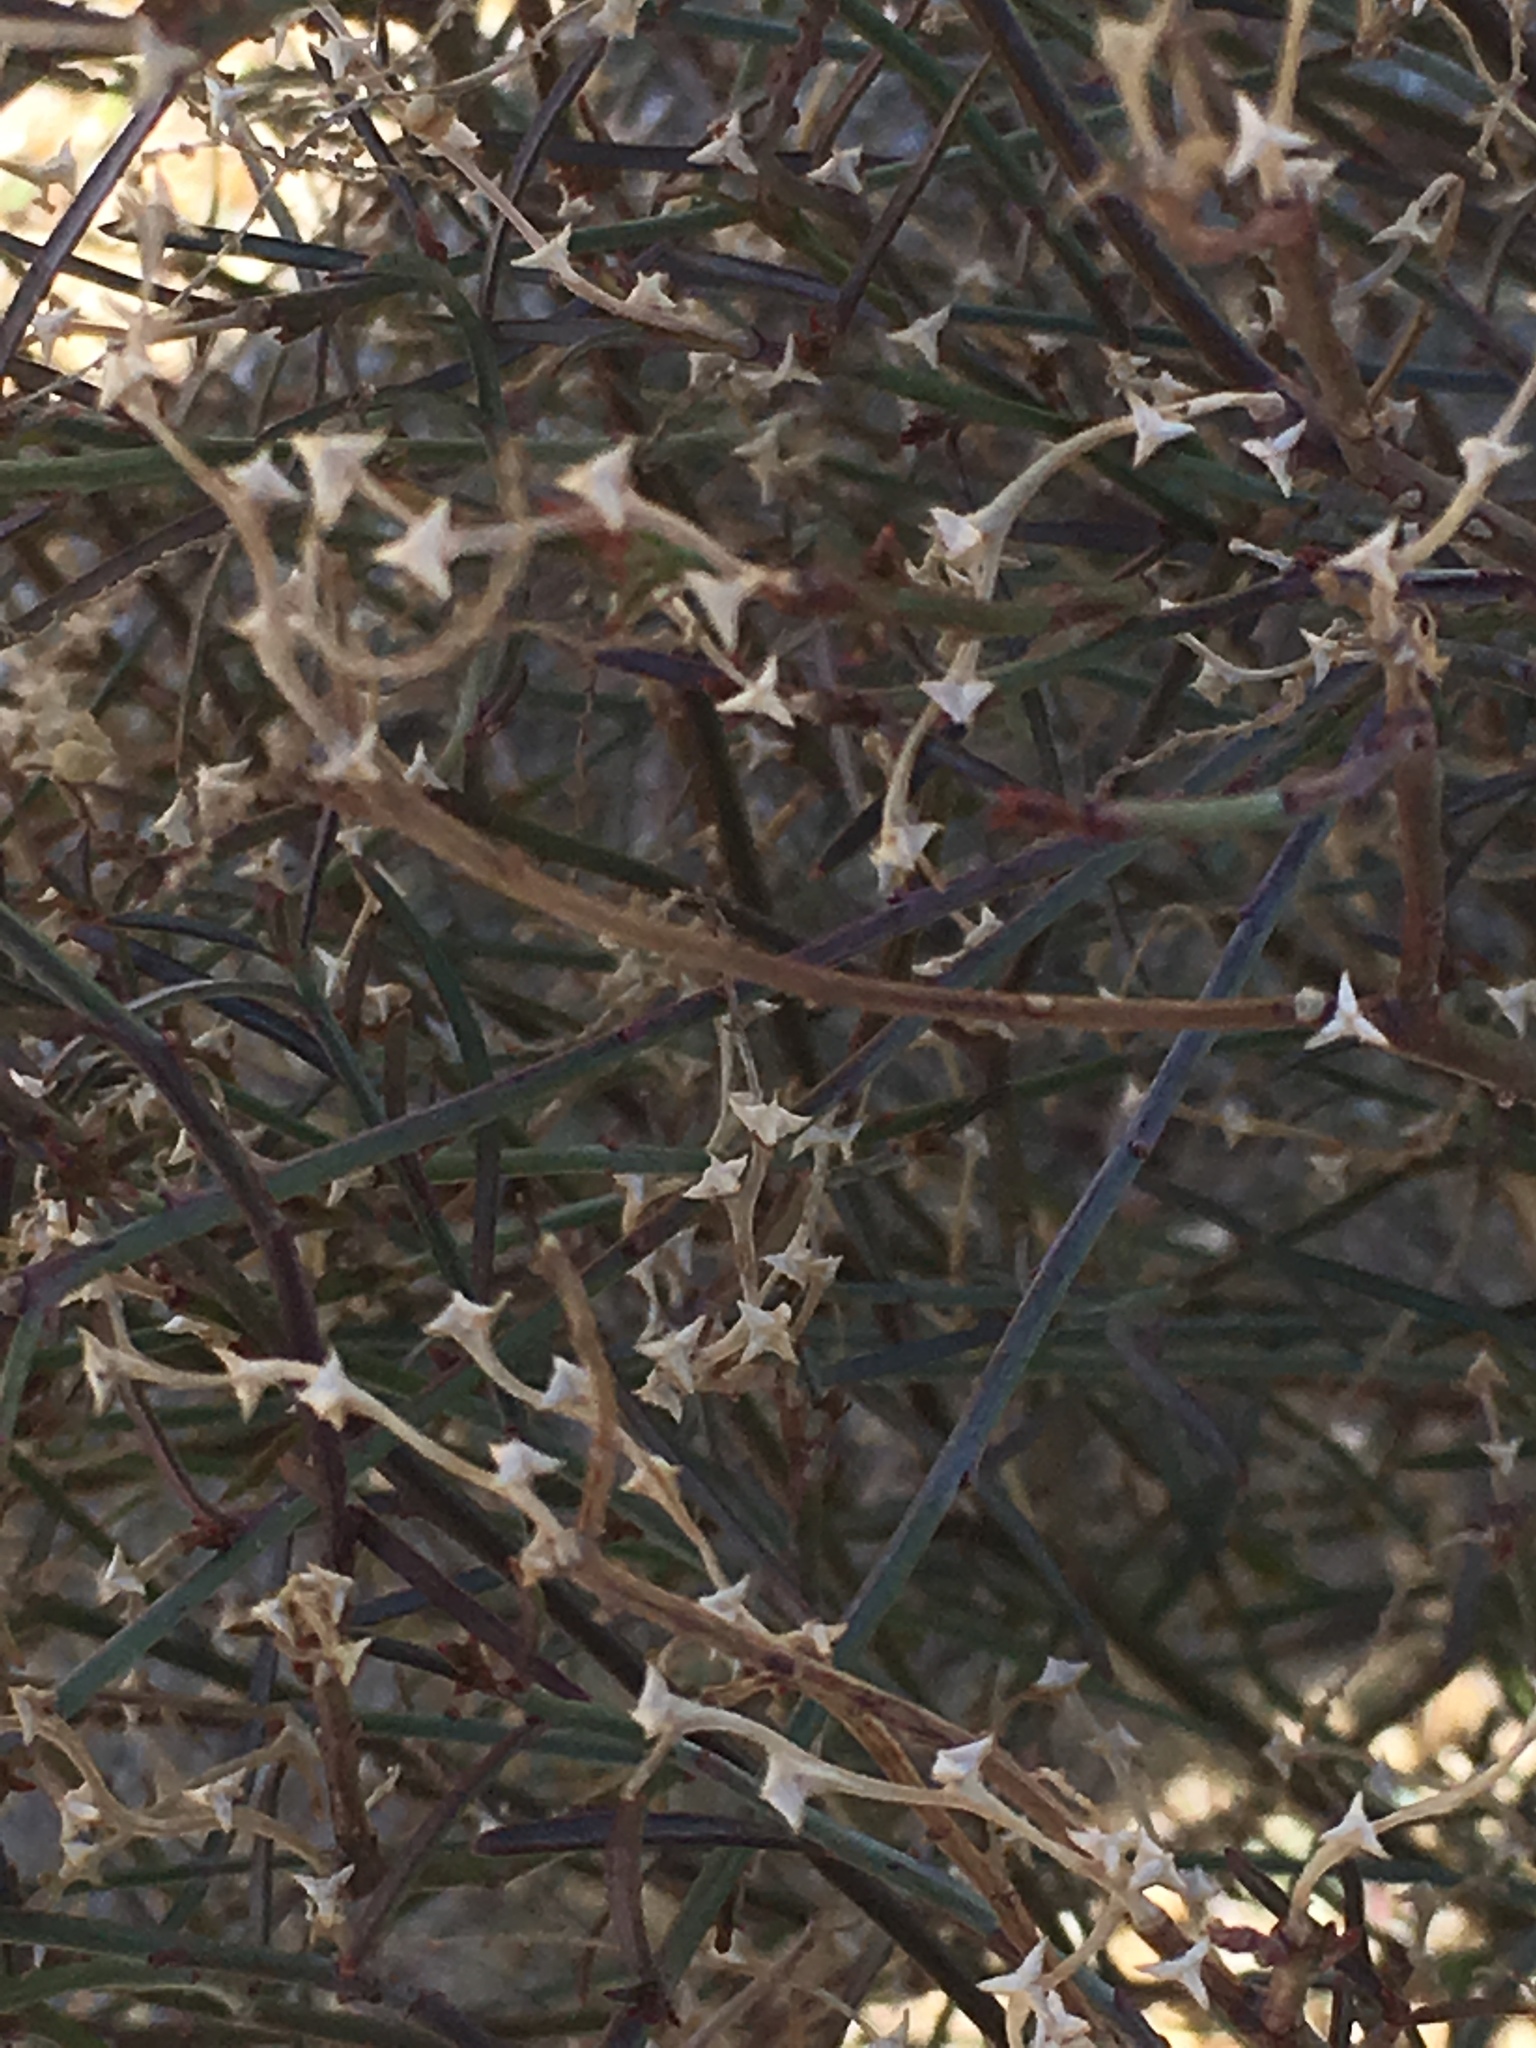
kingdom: Plantae
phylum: Tracheophyta
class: Magnoliopsida
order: Malpighiales
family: Euphorbiaceae
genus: Stillingia
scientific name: Stillingia linearifolia
